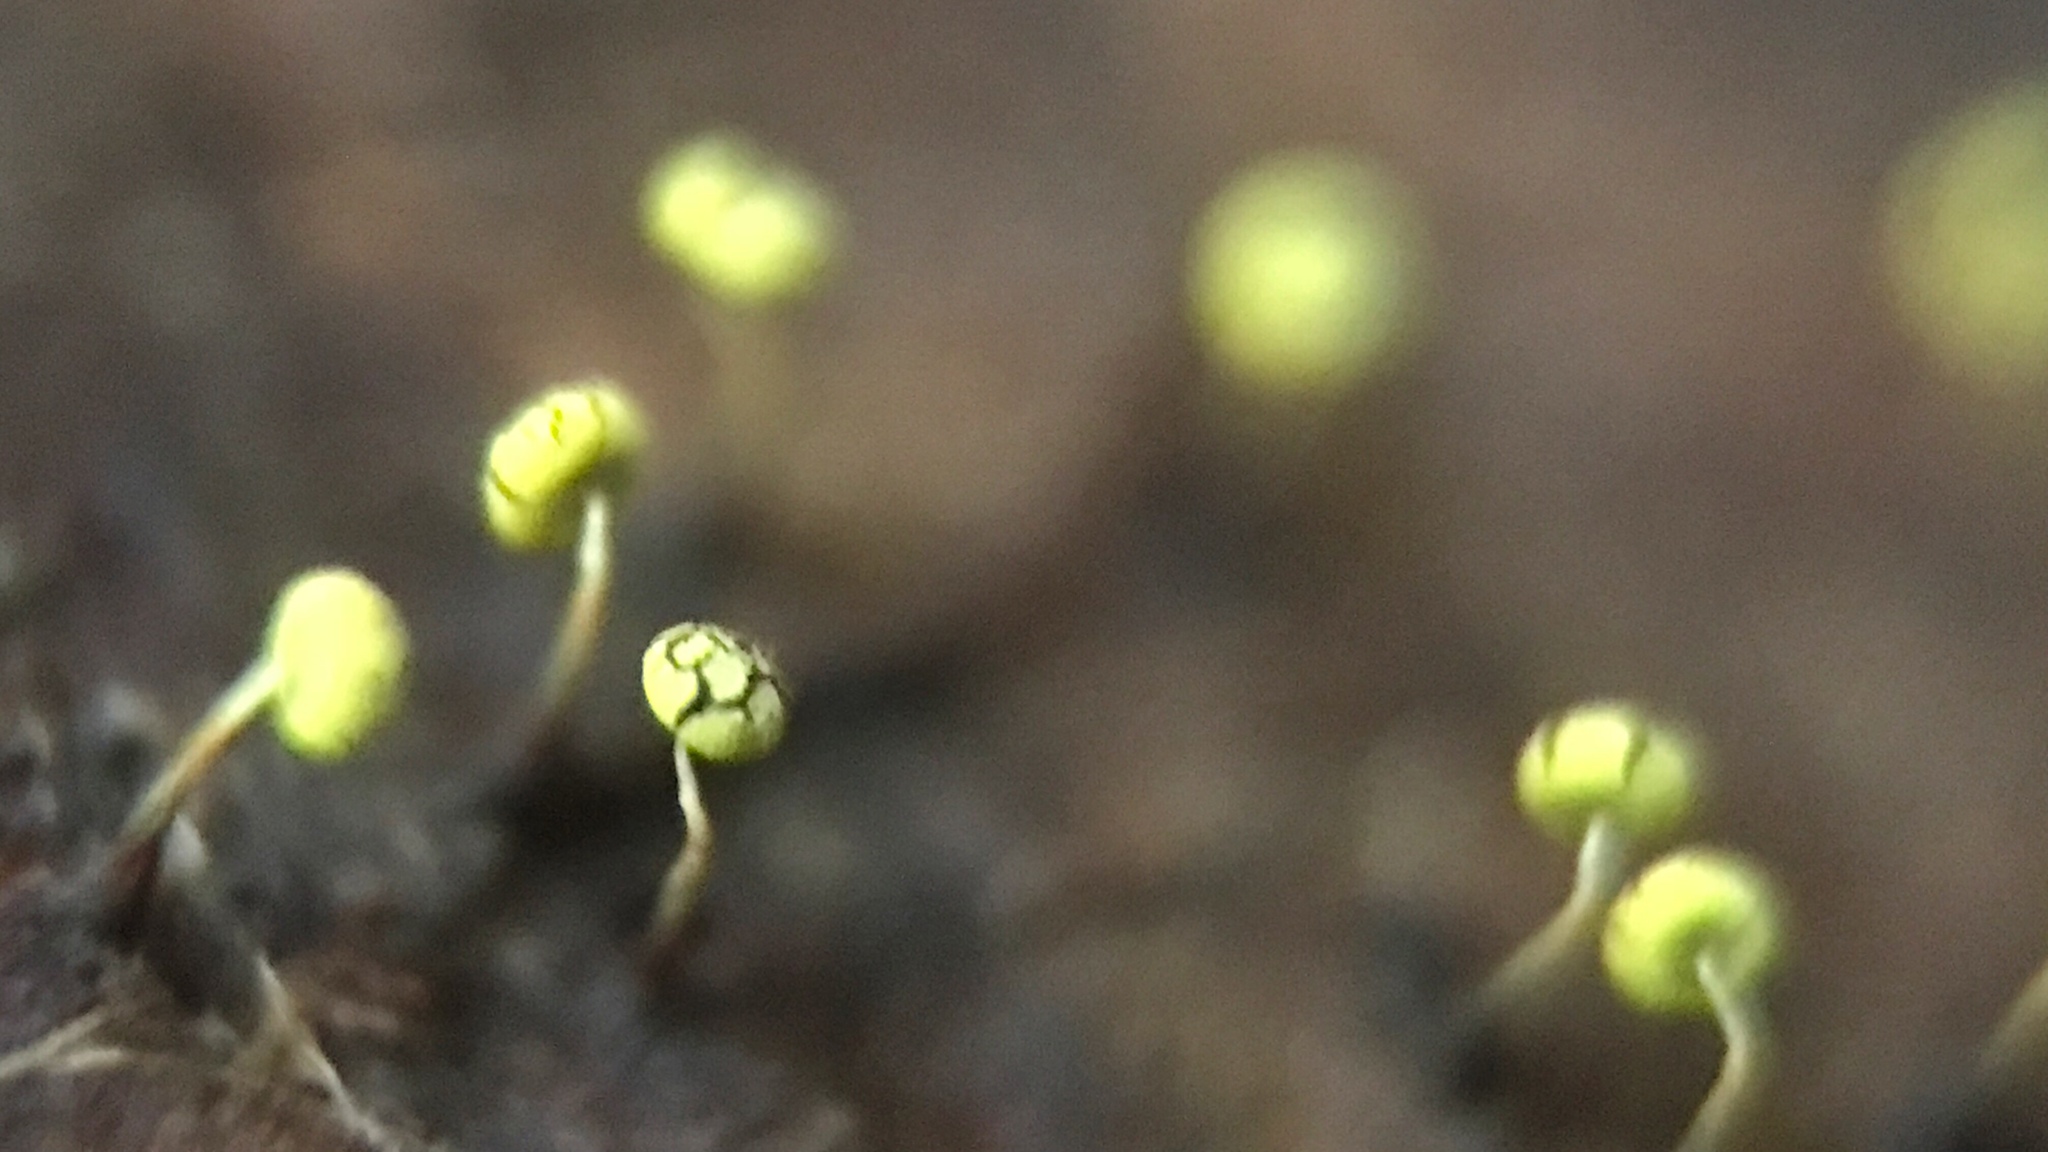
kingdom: Protozoa
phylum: Mycetozoa
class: Myxomycetes
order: Physarales
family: Physaraceae
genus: Physarum
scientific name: Physarum viride
